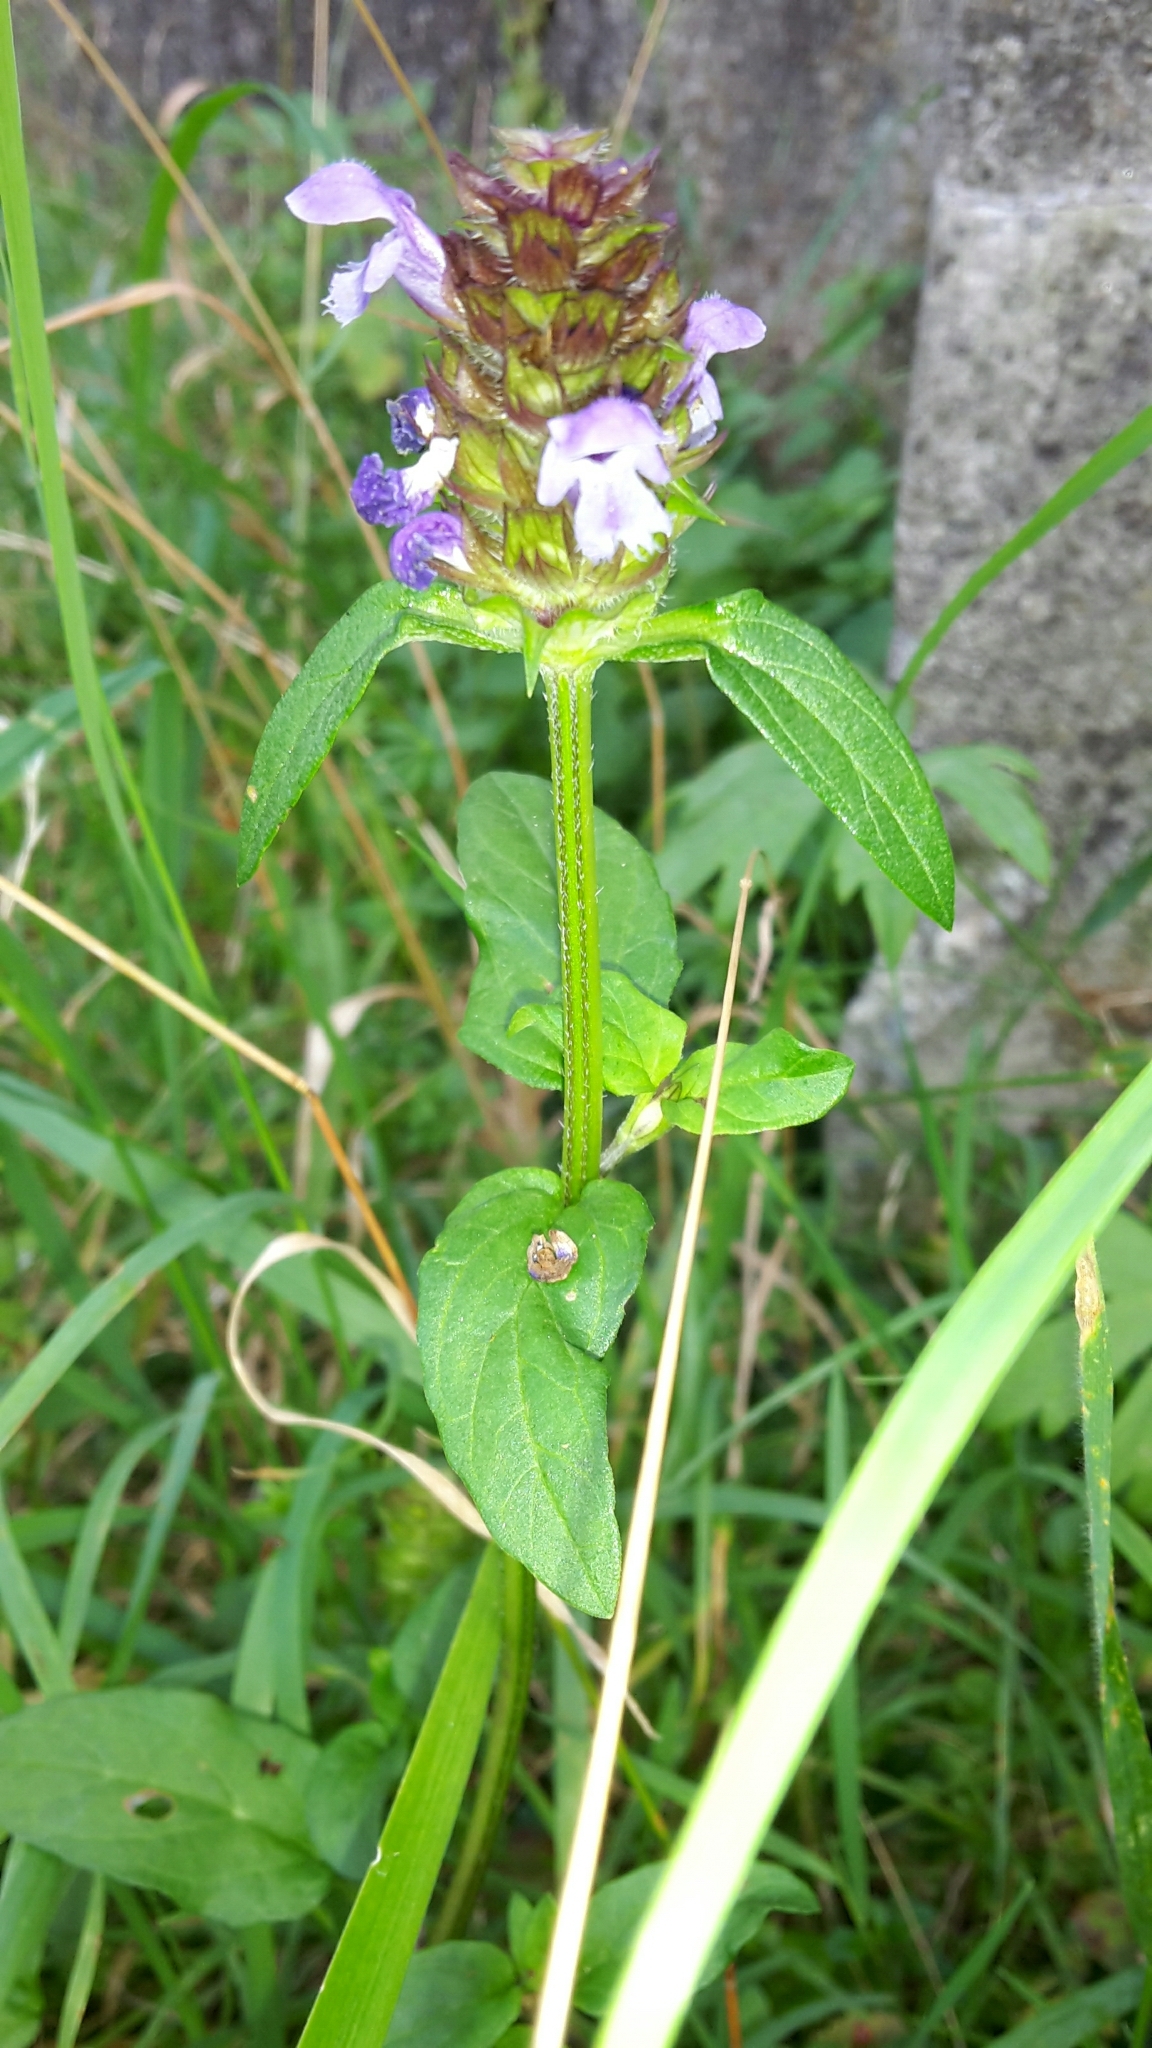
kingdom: Plantae
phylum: Tracheophyta
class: Magnoliopsida
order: Lamiales
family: Lamiaceae
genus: Prunella
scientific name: Prunella vulgaris
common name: Heal-all
